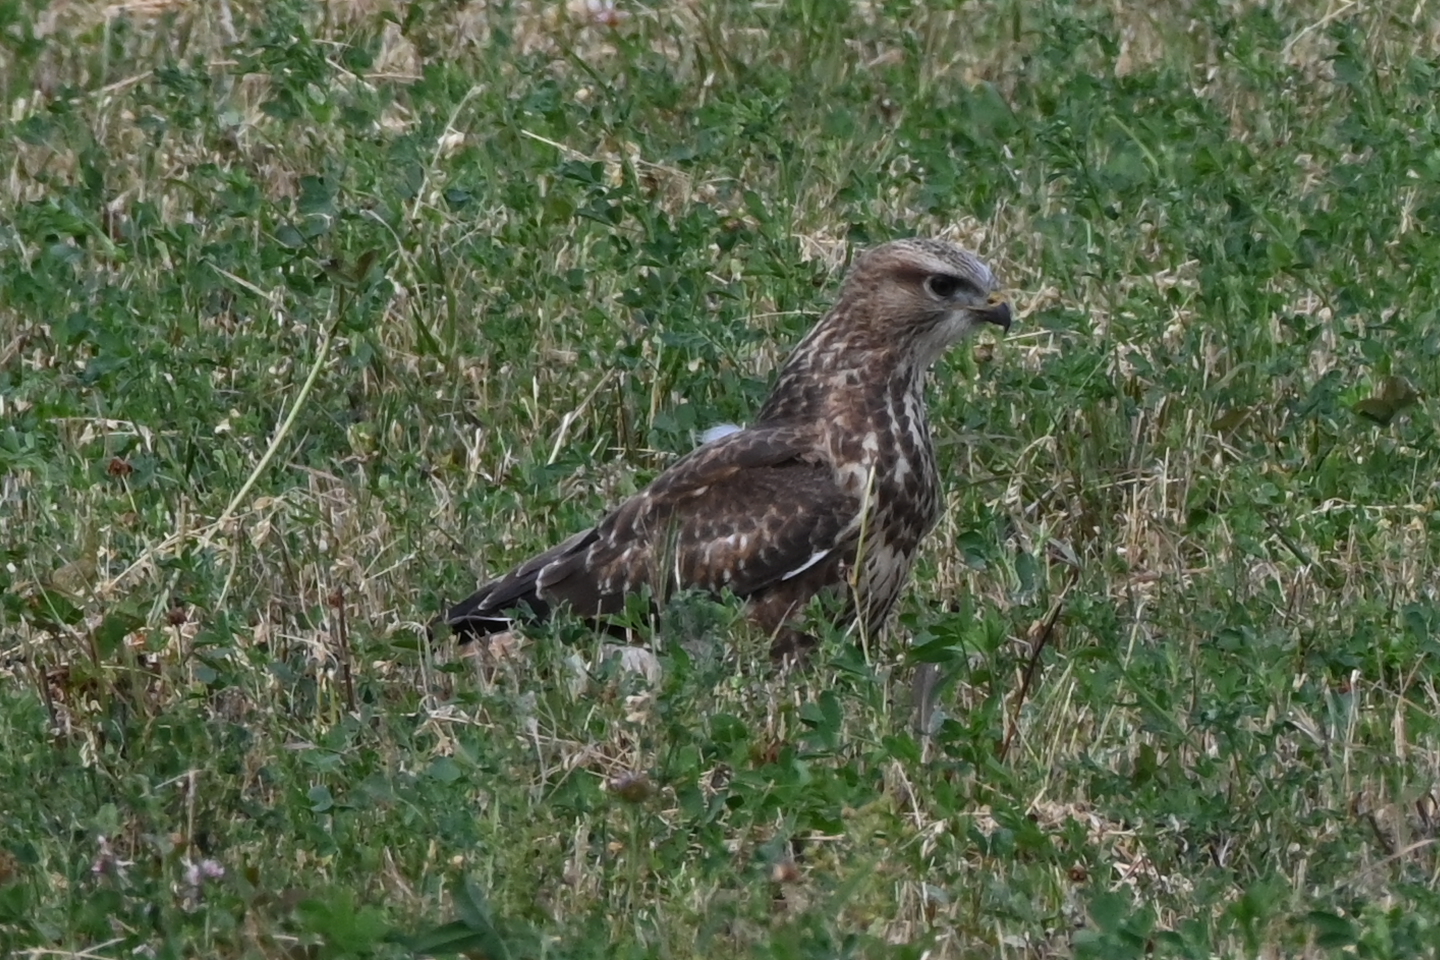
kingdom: Animalia
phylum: Chordata
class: Aves
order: Accipitriformes
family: Accipitridae
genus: Buteo
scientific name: Buteo buteo
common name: Common buzzard
